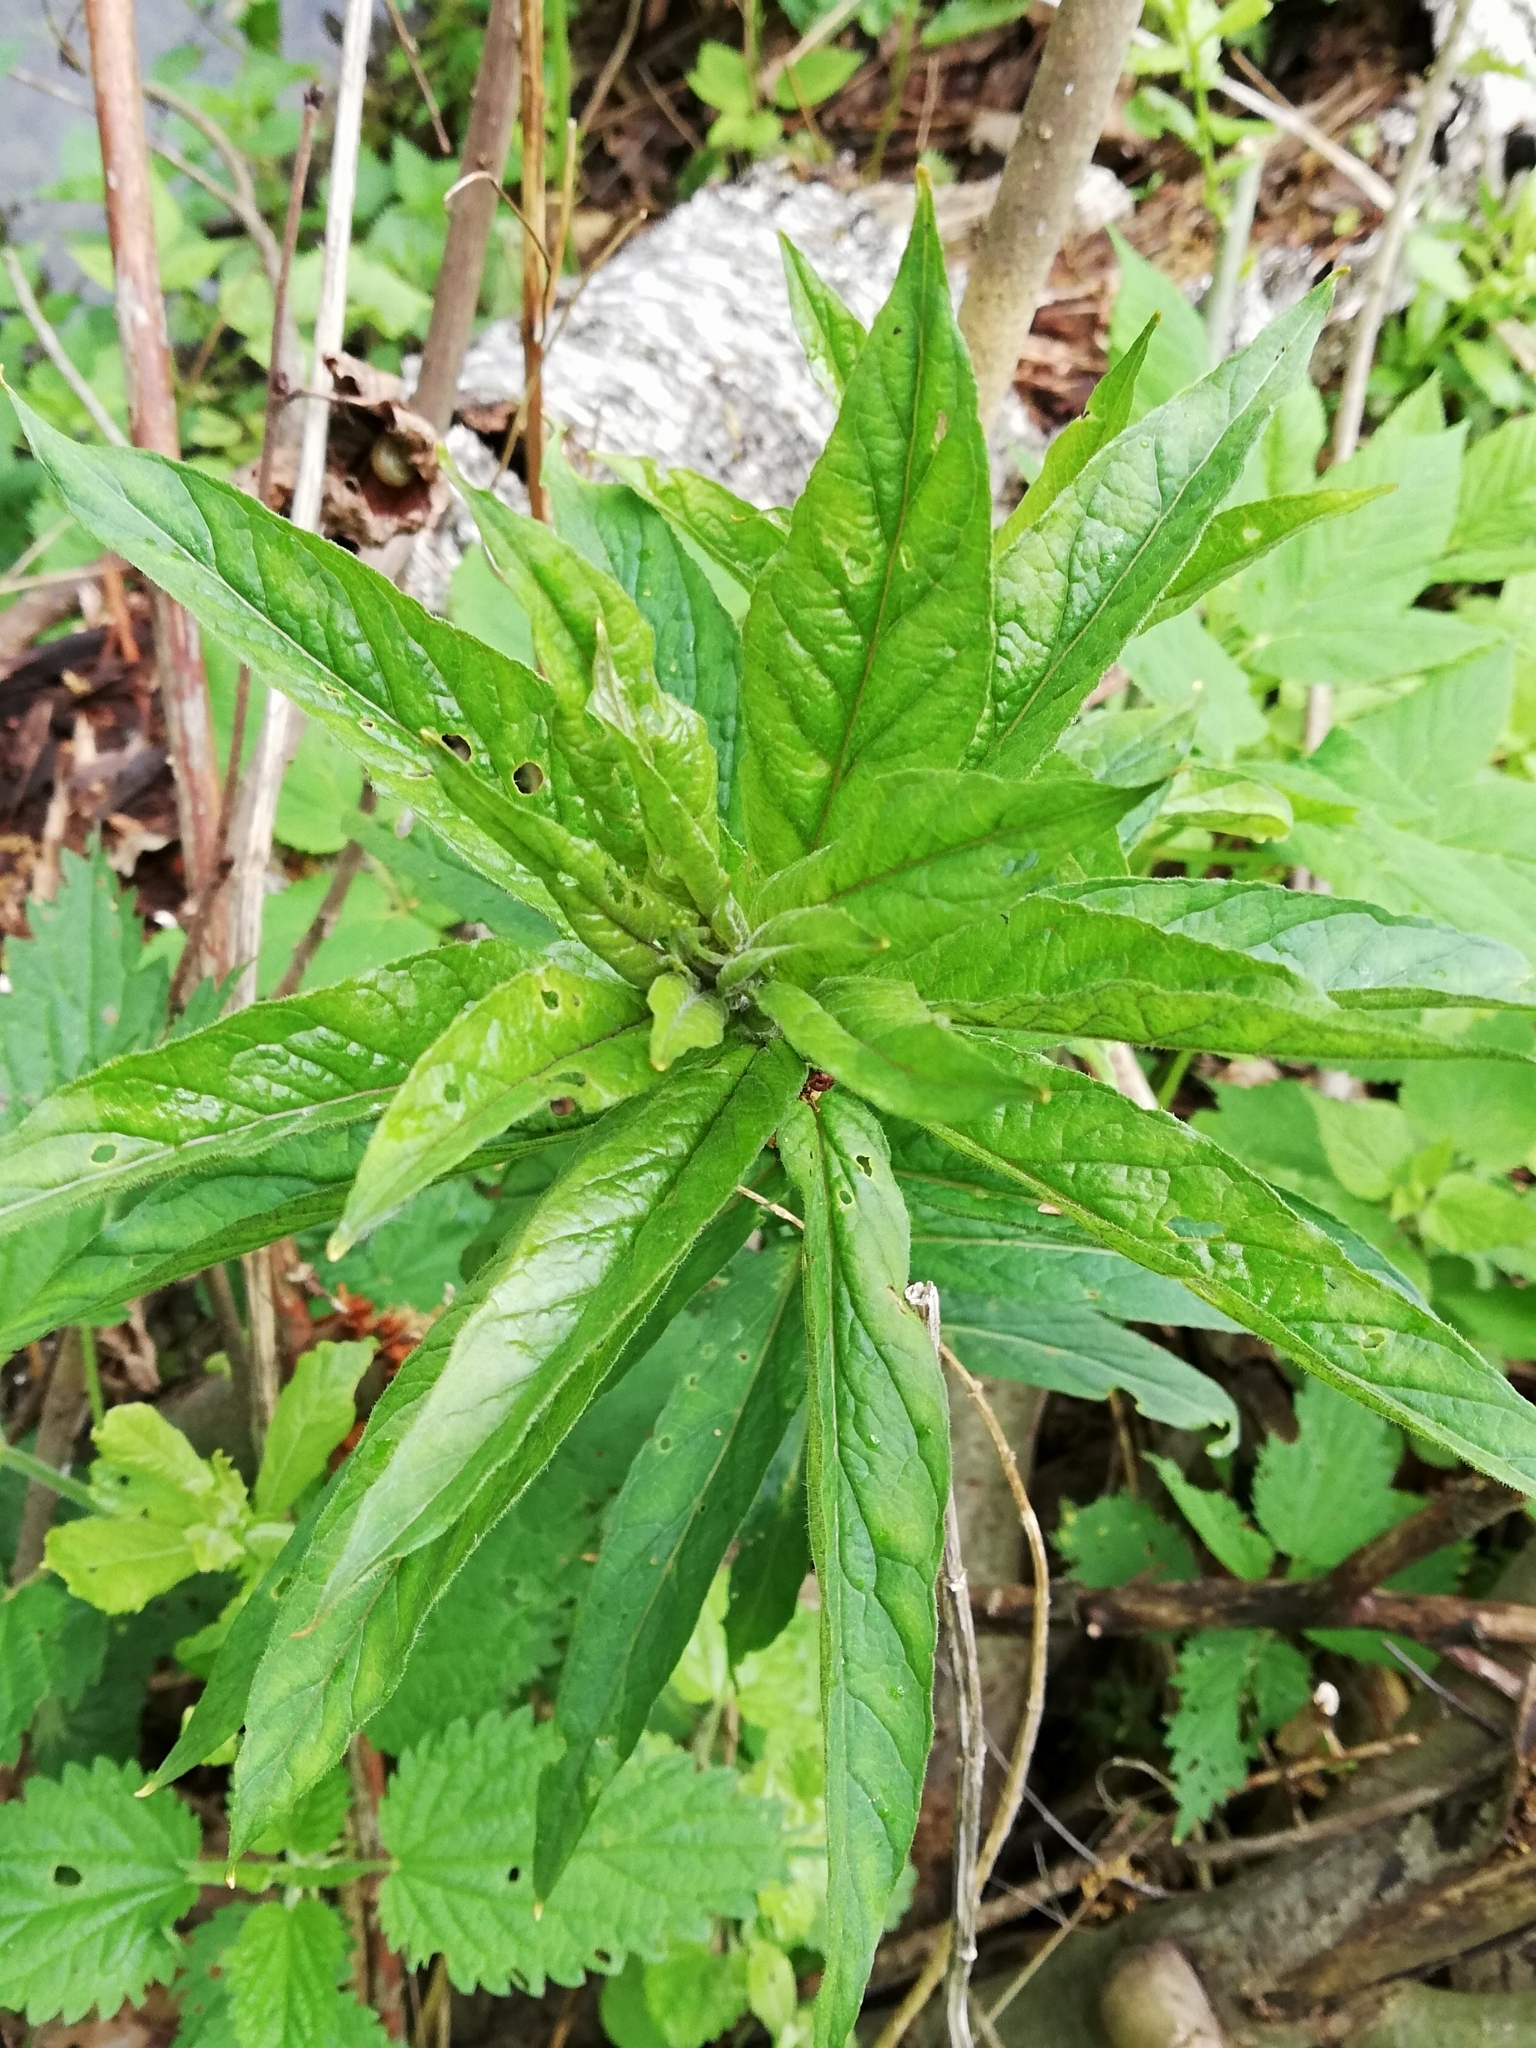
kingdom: Plantae
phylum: Tracheophyta
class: Magnoliopsida
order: Ericales
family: Primulaceae
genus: Lysimachia
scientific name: Lysimachia vulgaris
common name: Yellow loosestrife
